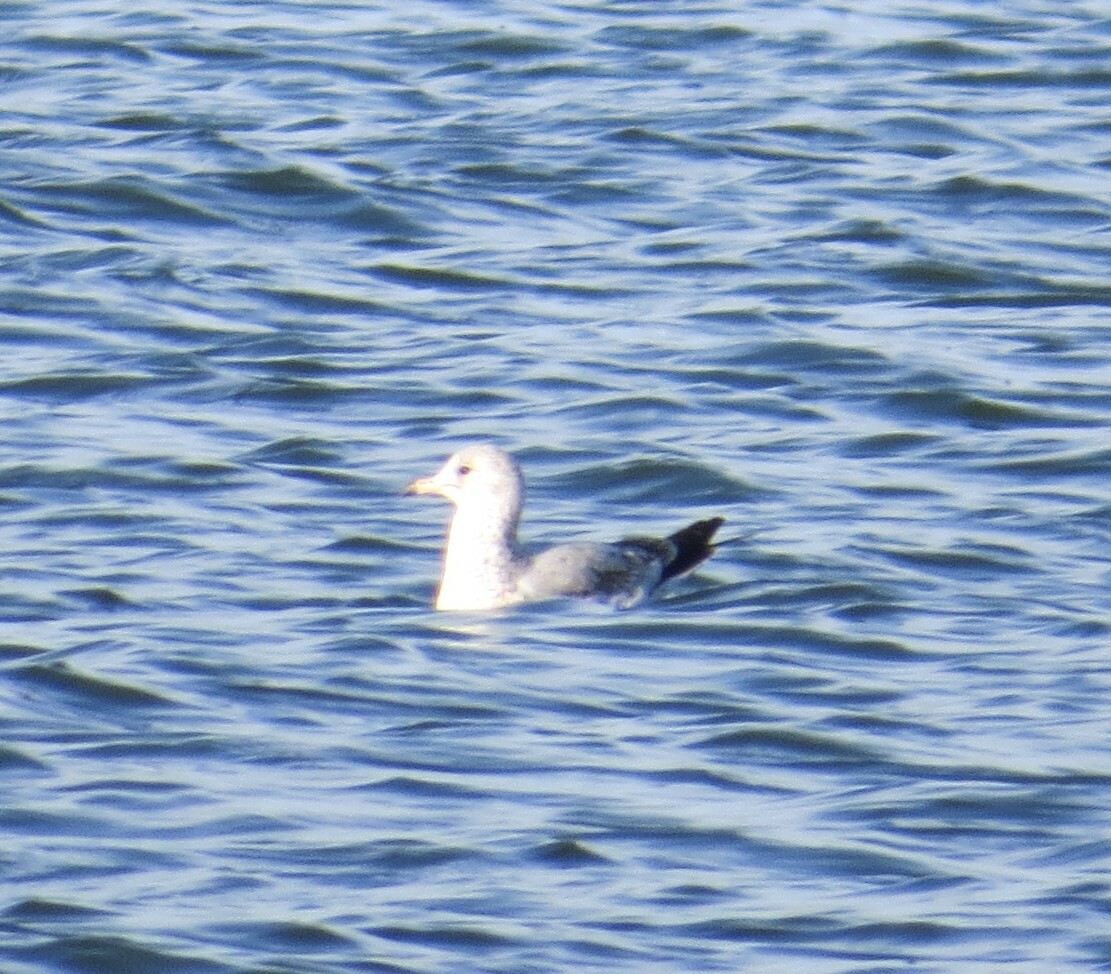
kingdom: Animalia
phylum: Chordata
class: Aves
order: Charadriiformes
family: Laridae
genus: Larus
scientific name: Larus delawarensis
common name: Ring-billed gull
